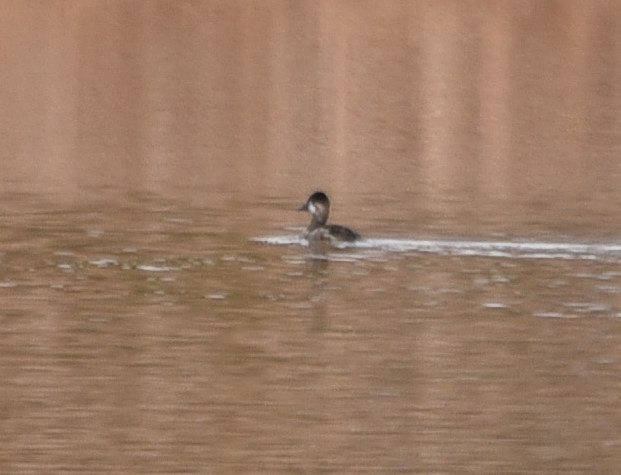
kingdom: Animalia
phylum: Chordata
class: Aves
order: Anseriformes
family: Anatidae
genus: Oxyura
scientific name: Oxyura jamaicensis
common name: Ruddy duck
